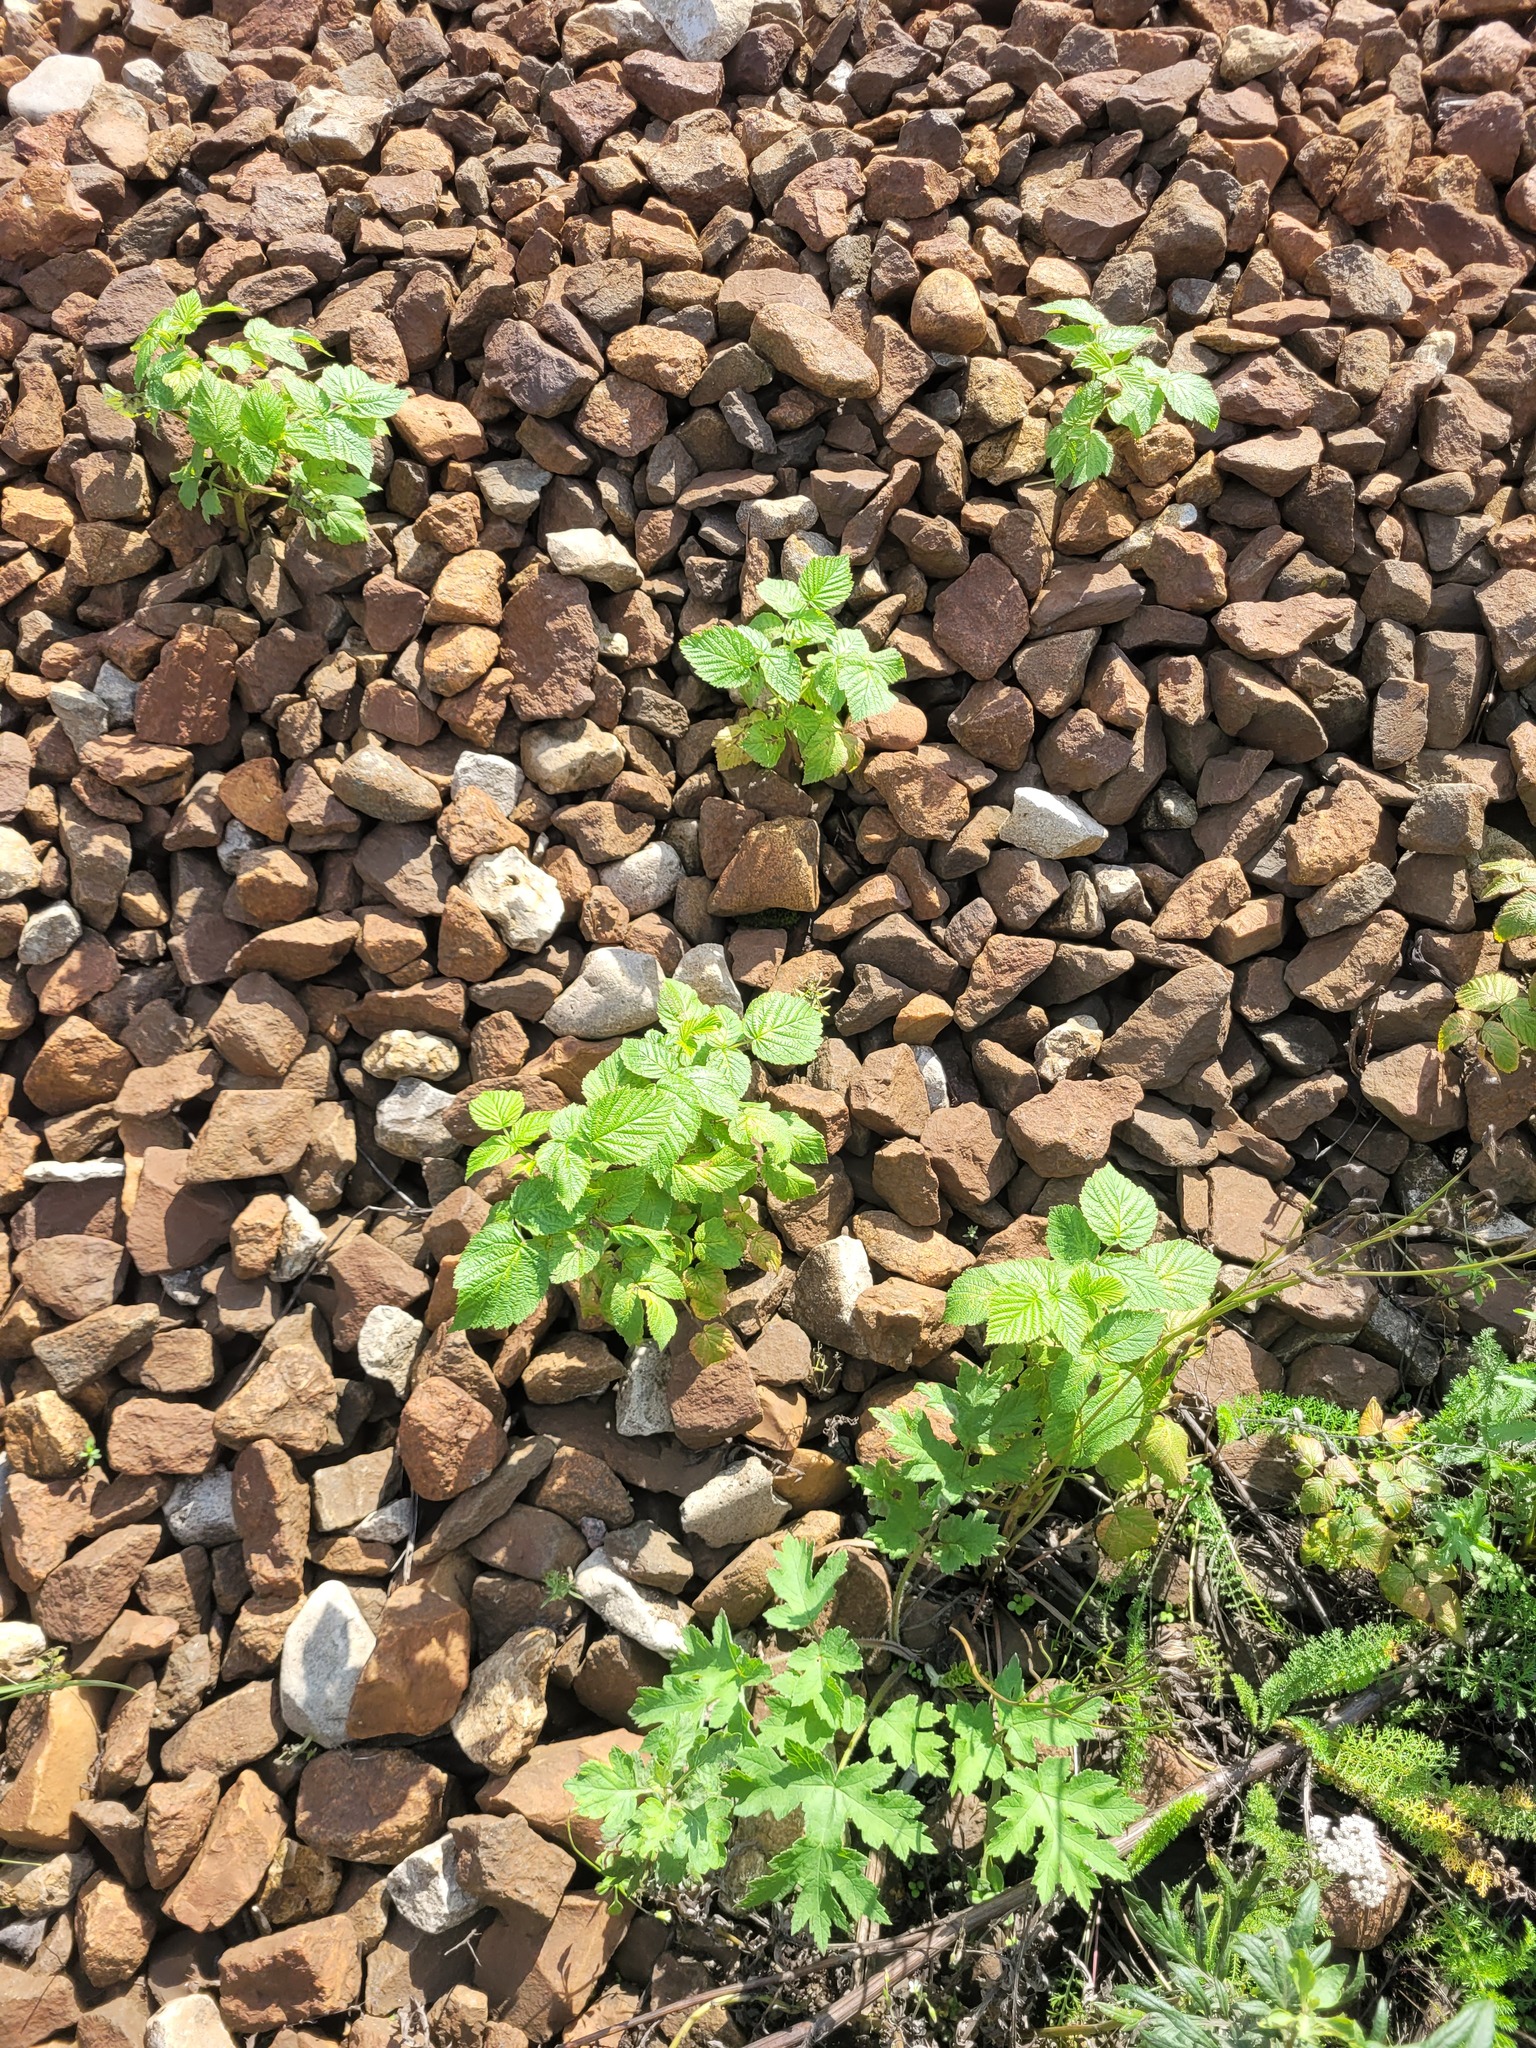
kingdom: Plantae
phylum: Tracheophyta
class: Magnoliopsida
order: Rosales
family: Rosaceae
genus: Rubus
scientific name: Rubus idaeus
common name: Raspberry
